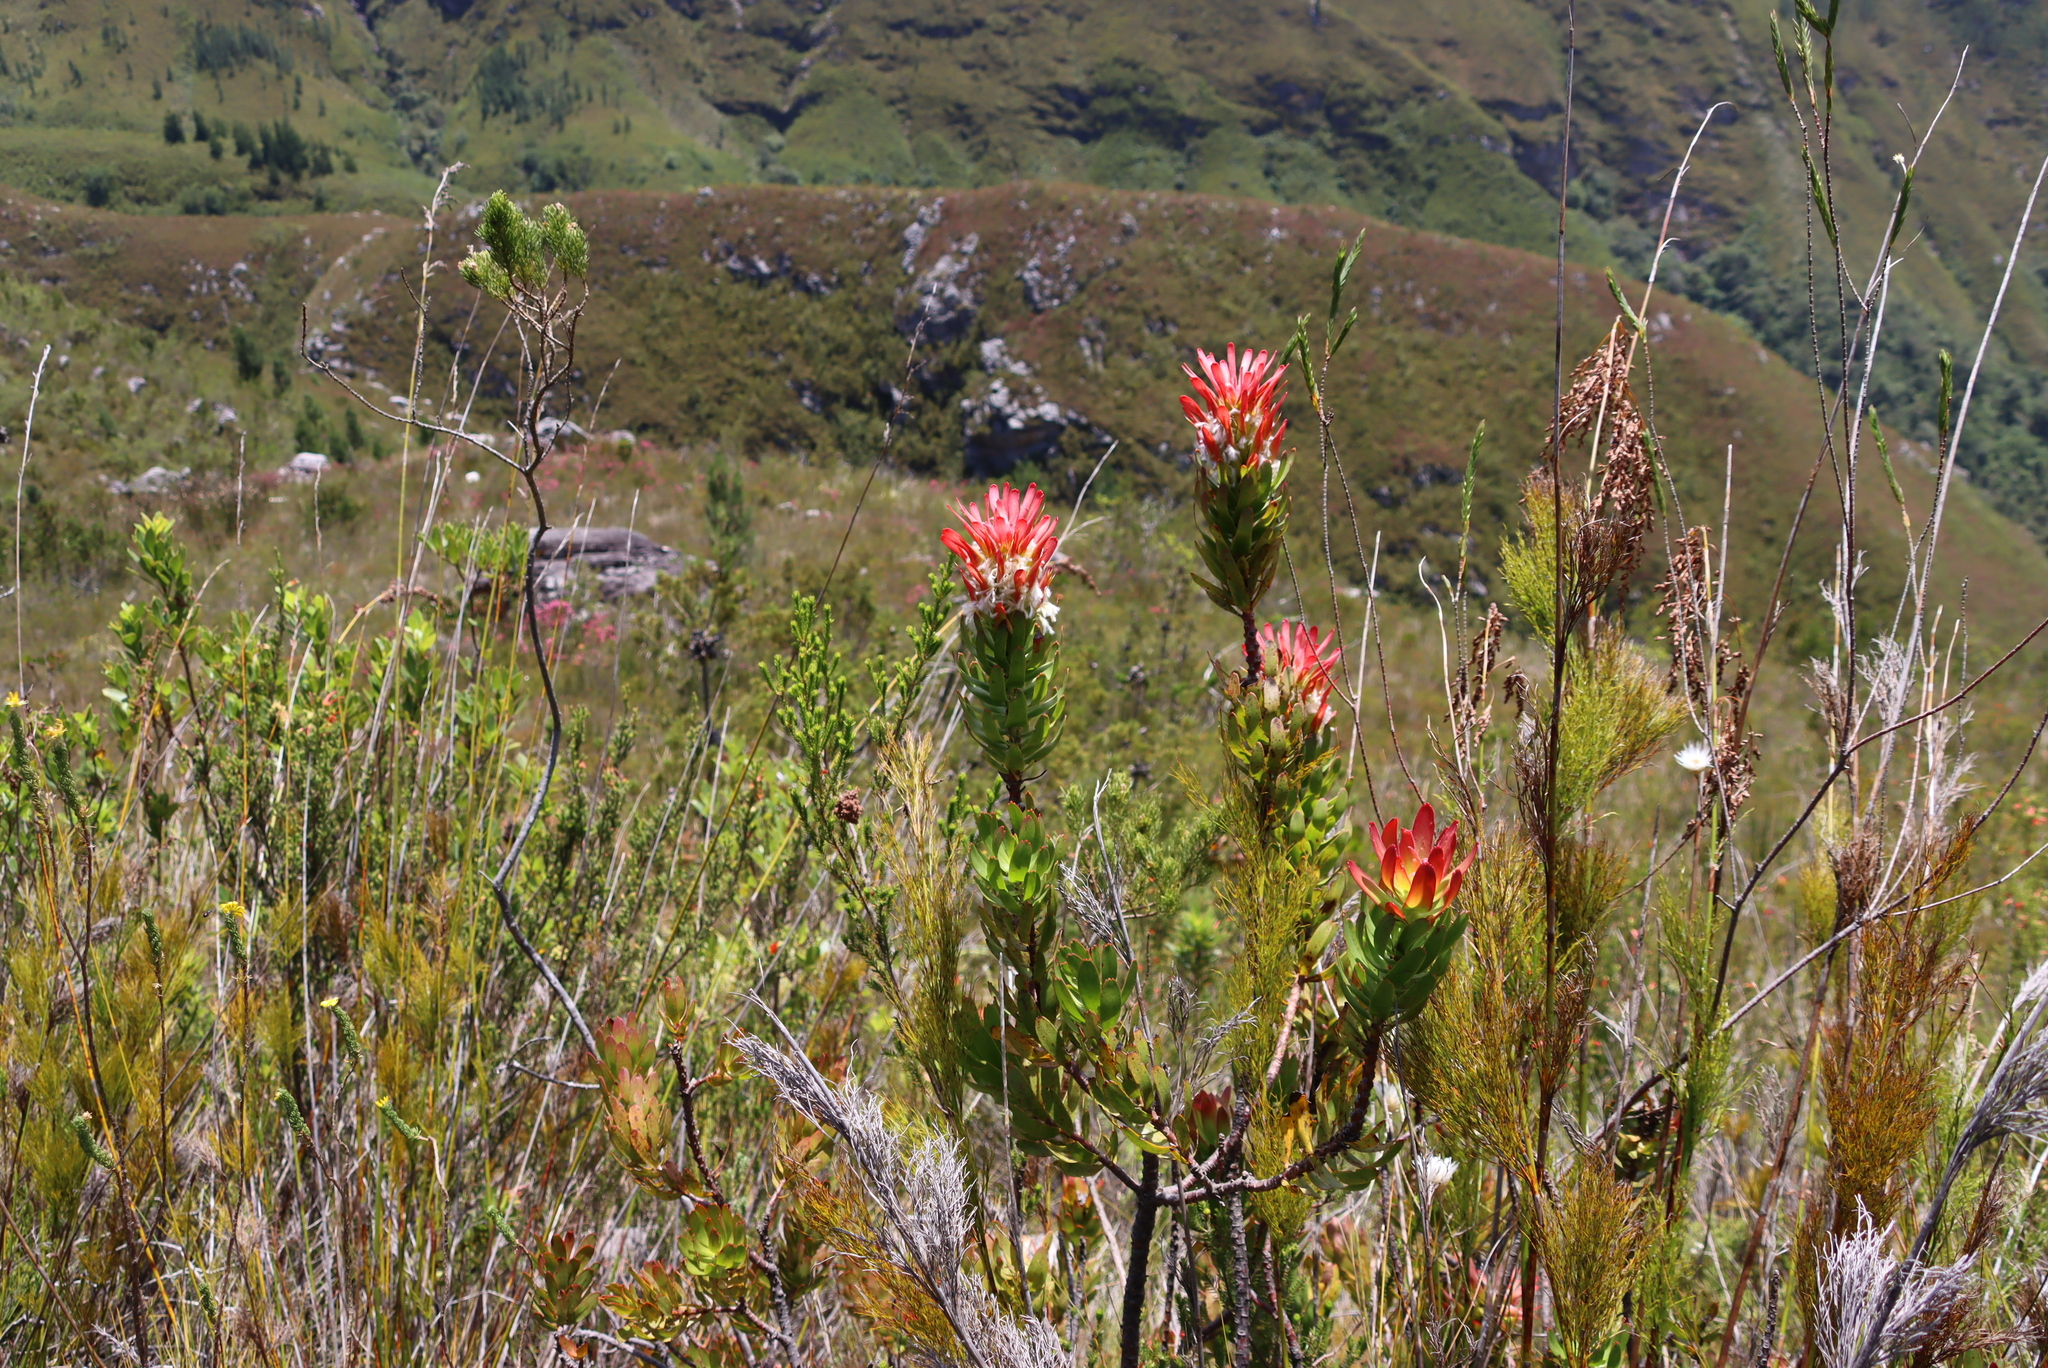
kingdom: Plantae
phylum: Tracheophyta
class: Magnoliopsida
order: Proteales
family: Proteaceae
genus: Mimetes
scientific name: Mimetes cucullatus
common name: Common pagoda
